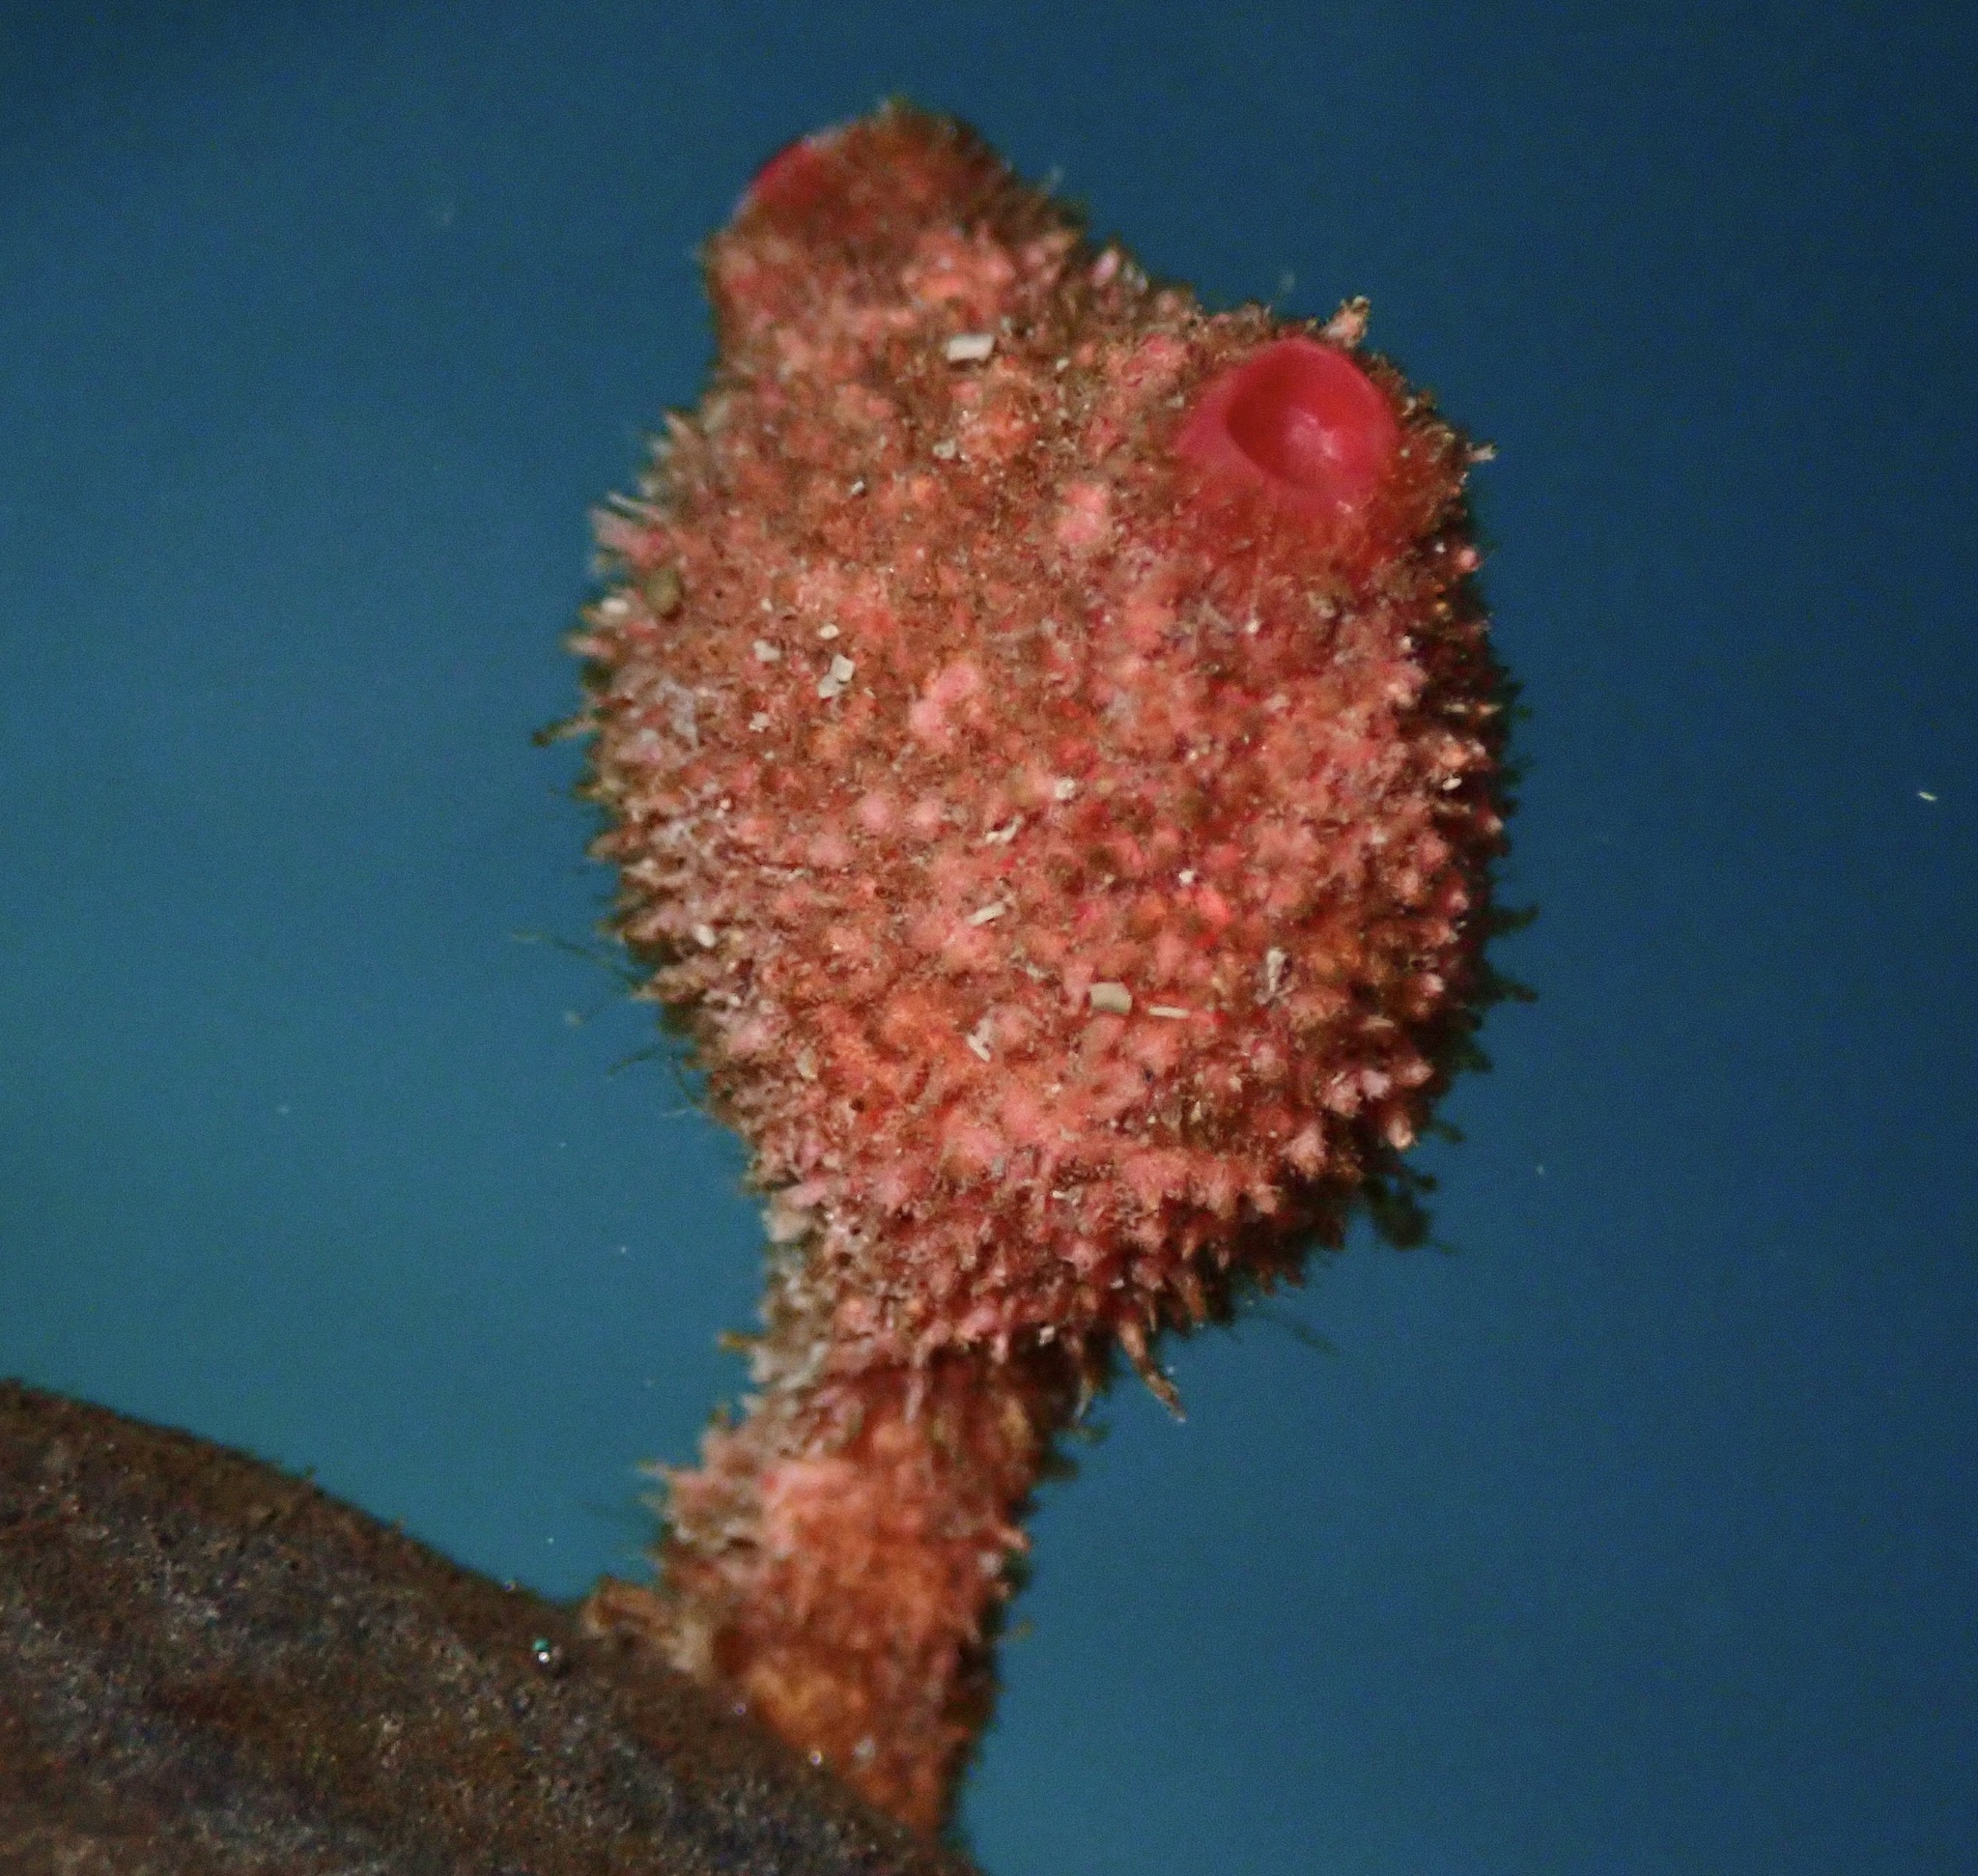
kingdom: Animalia
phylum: Chordata
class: Ascidiacea
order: Stolidobranchia
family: Pyuridae
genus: Boltenia
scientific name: Boltenia villosa
